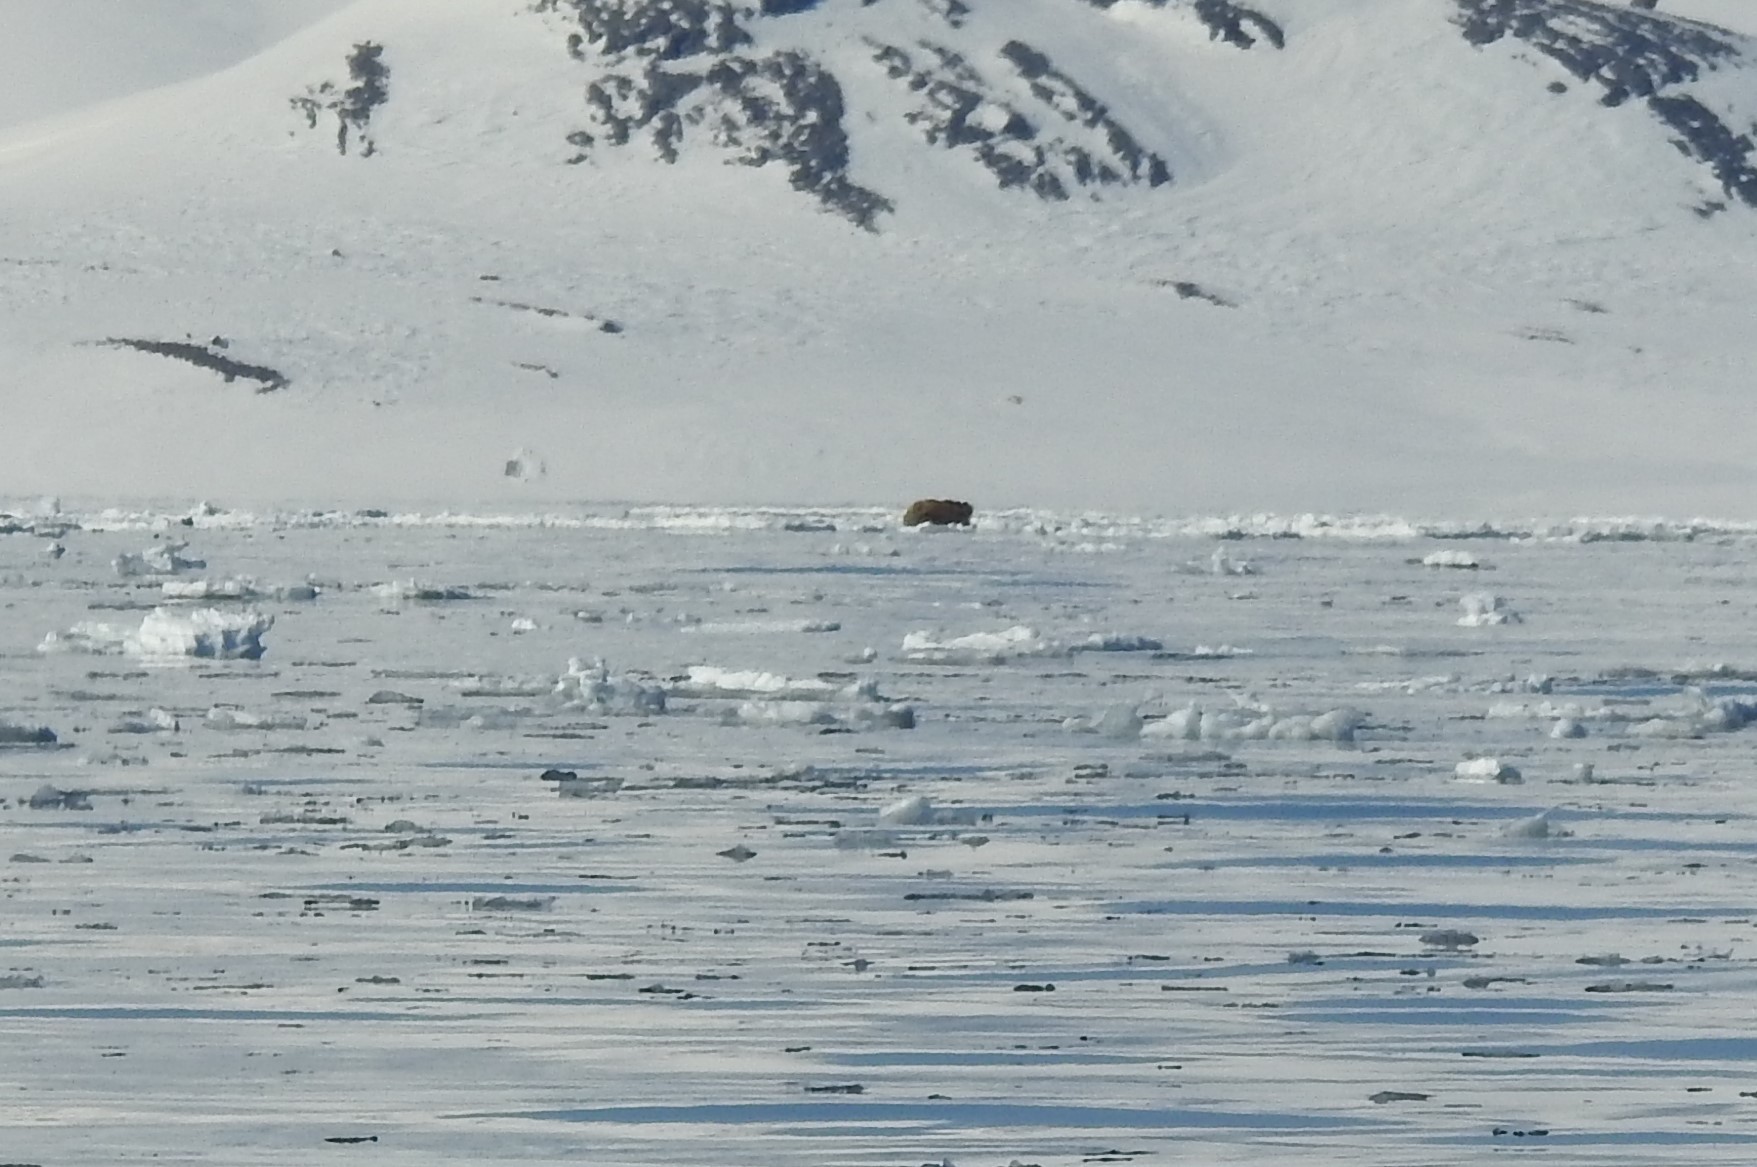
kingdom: Animalia
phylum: Chordata
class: Mammalia
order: Carnivora
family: Odobenidae
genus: Odobenus
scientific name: Odobenus rosmarus
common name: Walrus
